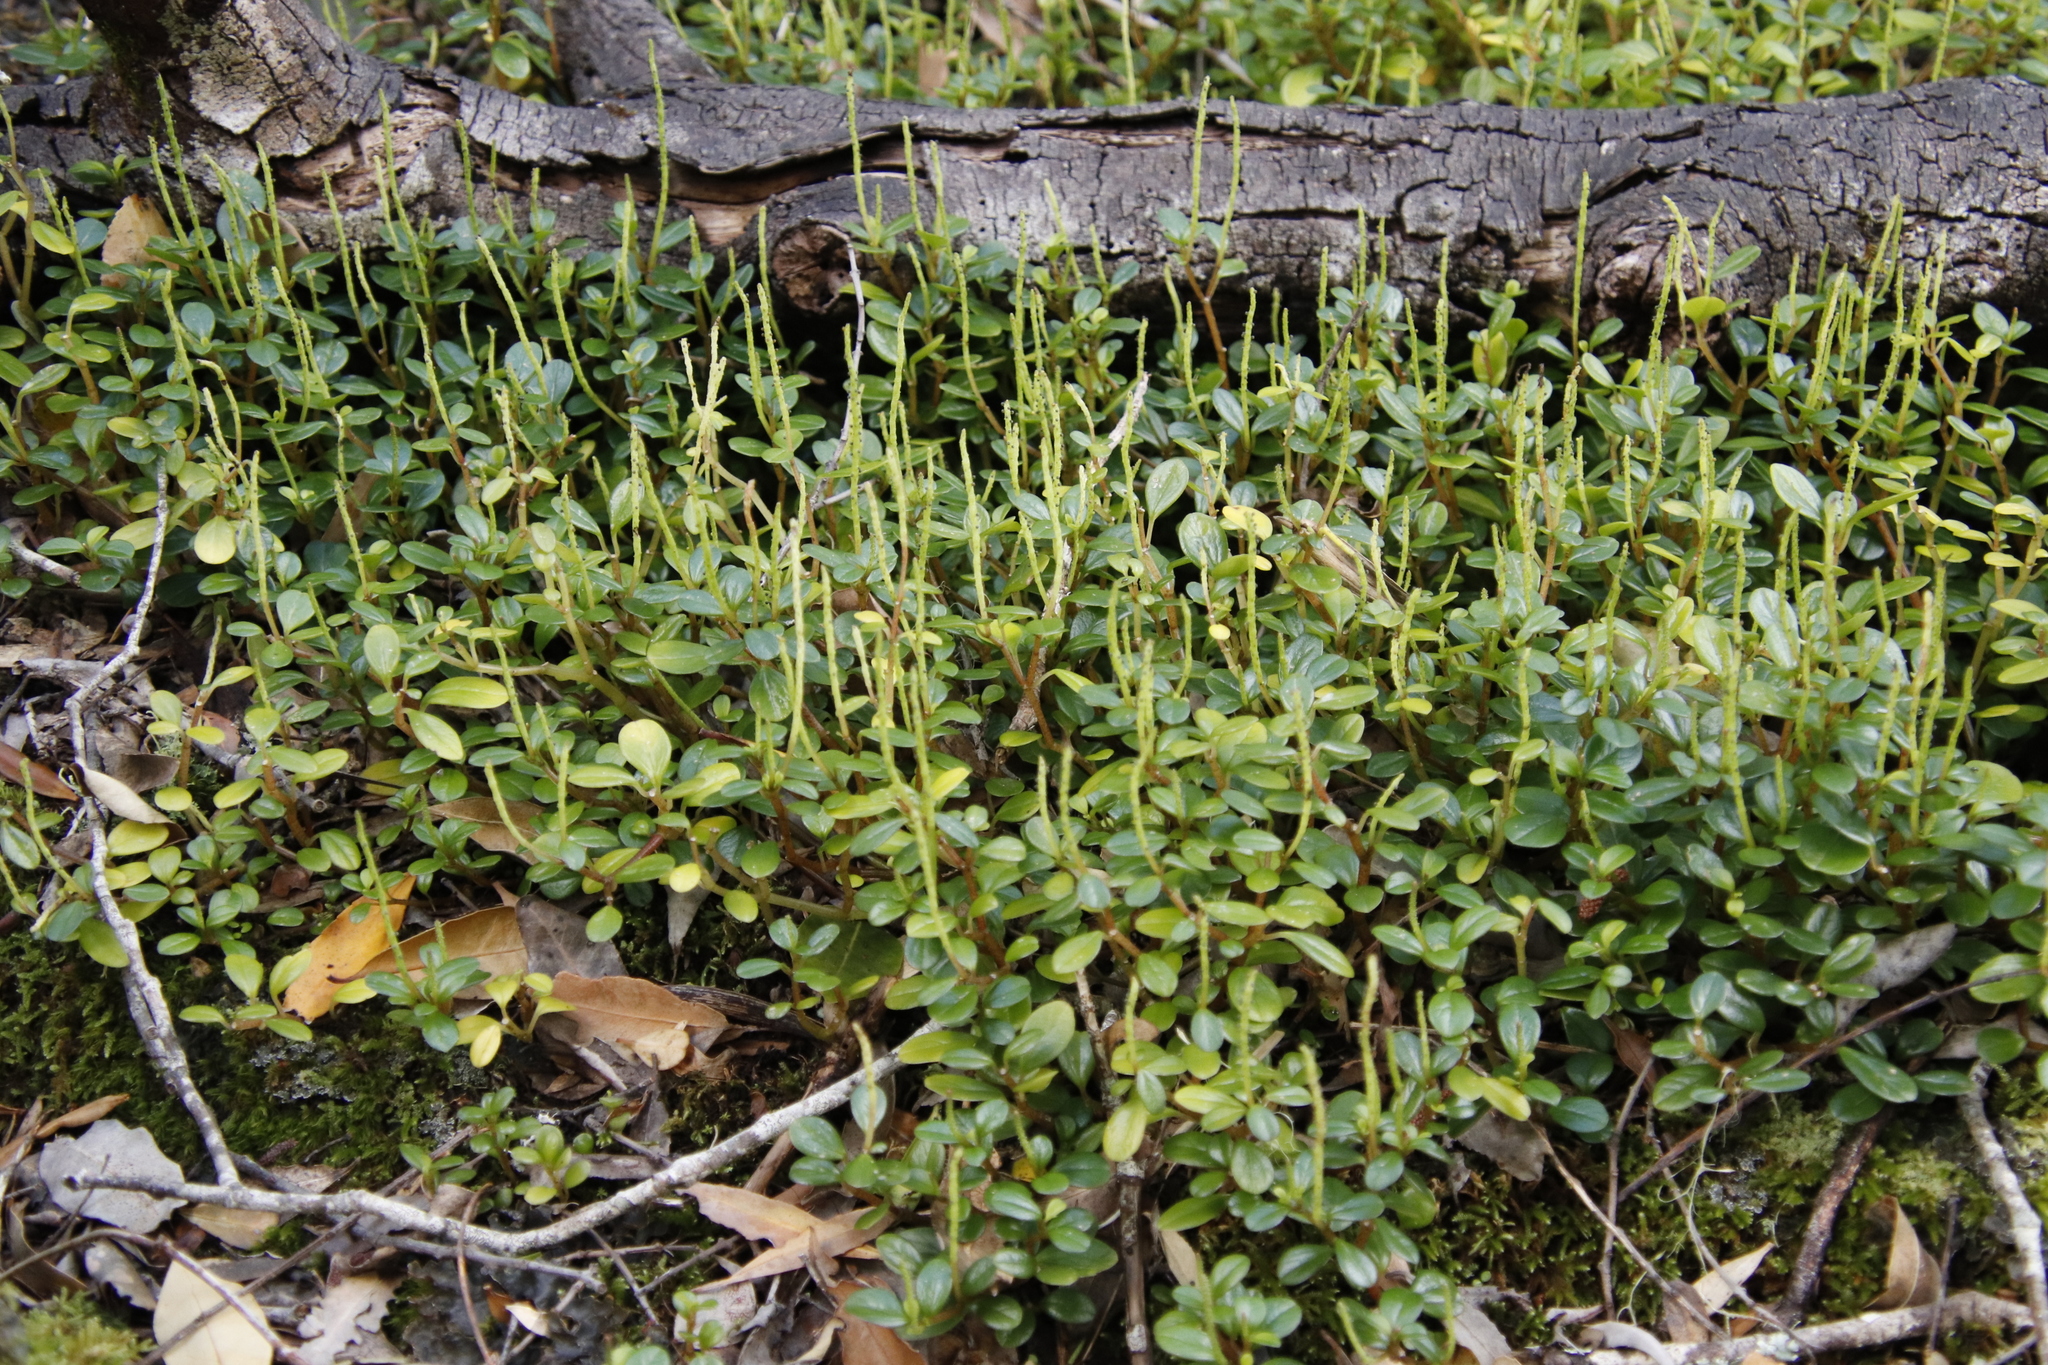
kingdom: Plantae
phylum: Tracheophyta
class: Magnoliopsida
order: Piperales
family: Piperaceae
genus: Peperomia
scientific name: Peperomia retusa
